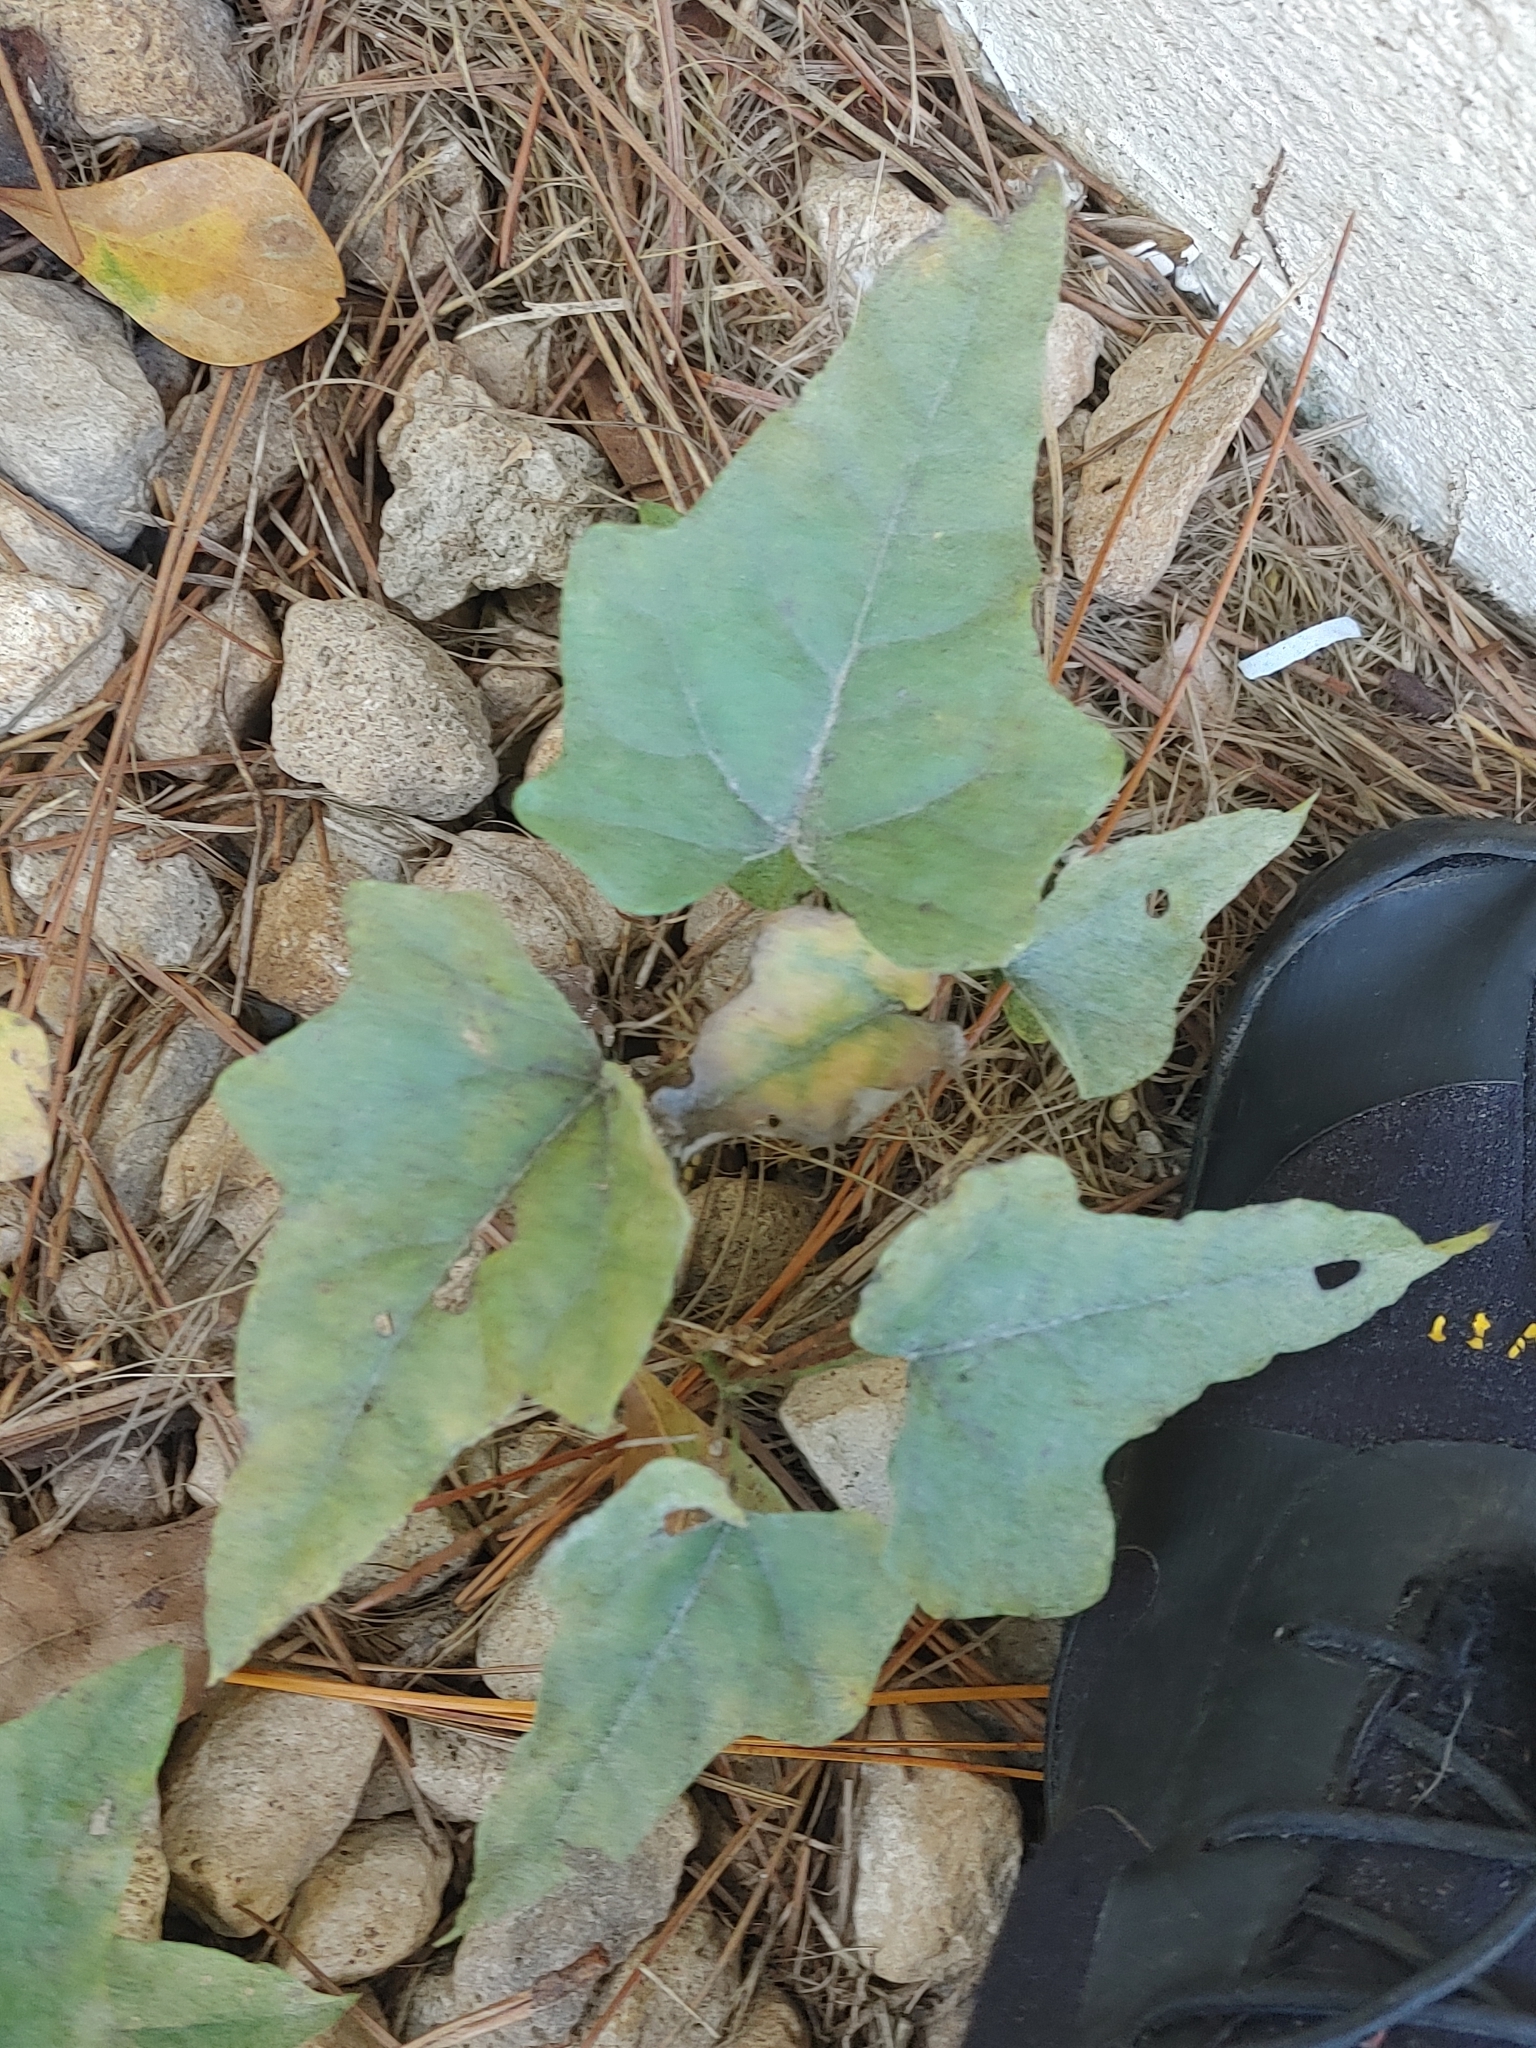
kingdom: Plantae
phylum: Tracheophyta
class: Magnoliopsida
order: Ranunculales
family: Menispermaceae
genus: Cocculus
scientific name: Cocculus carolinus
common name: Carolina moonseed
